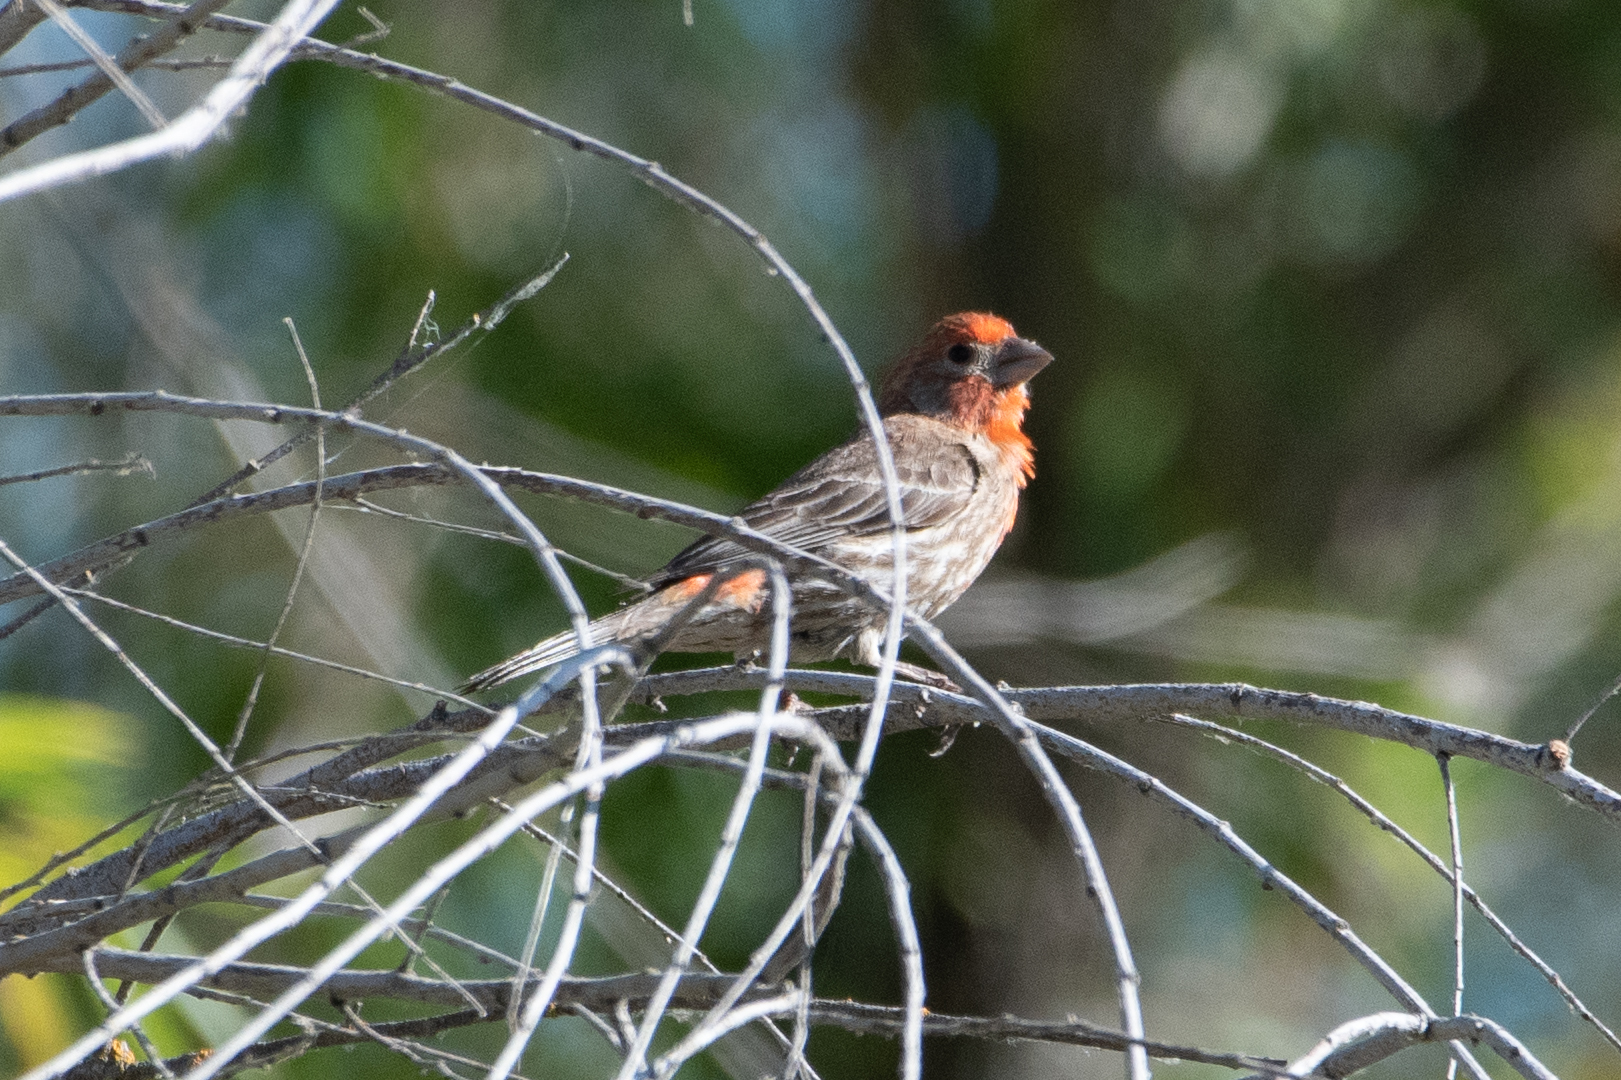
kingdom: Animalia
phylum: Chordata
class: Aves
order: Passeriformes
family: Fringillidae
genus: Haemorhous
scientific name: Haemorhous mexicanus
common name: House finch
